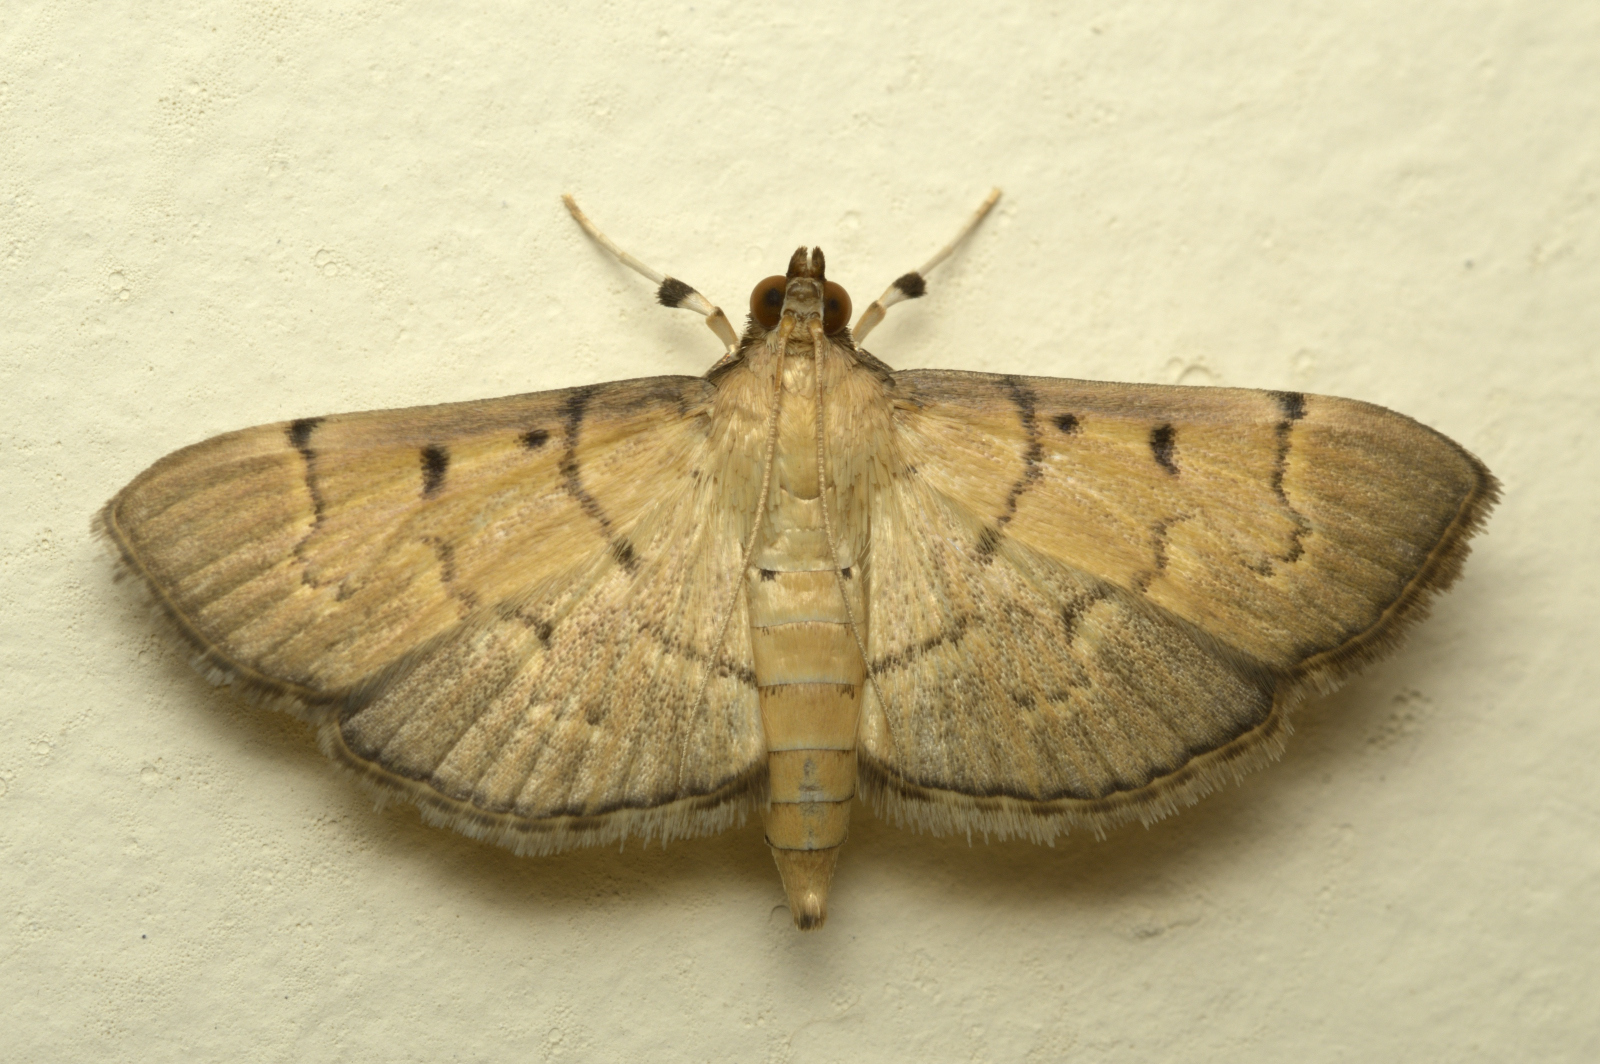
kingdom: Animalia
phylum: Arthropoda
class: Insecta
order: Lepidoptera
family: Crambidae
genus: Herpetogramma
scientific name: Herpetogramma rudis
